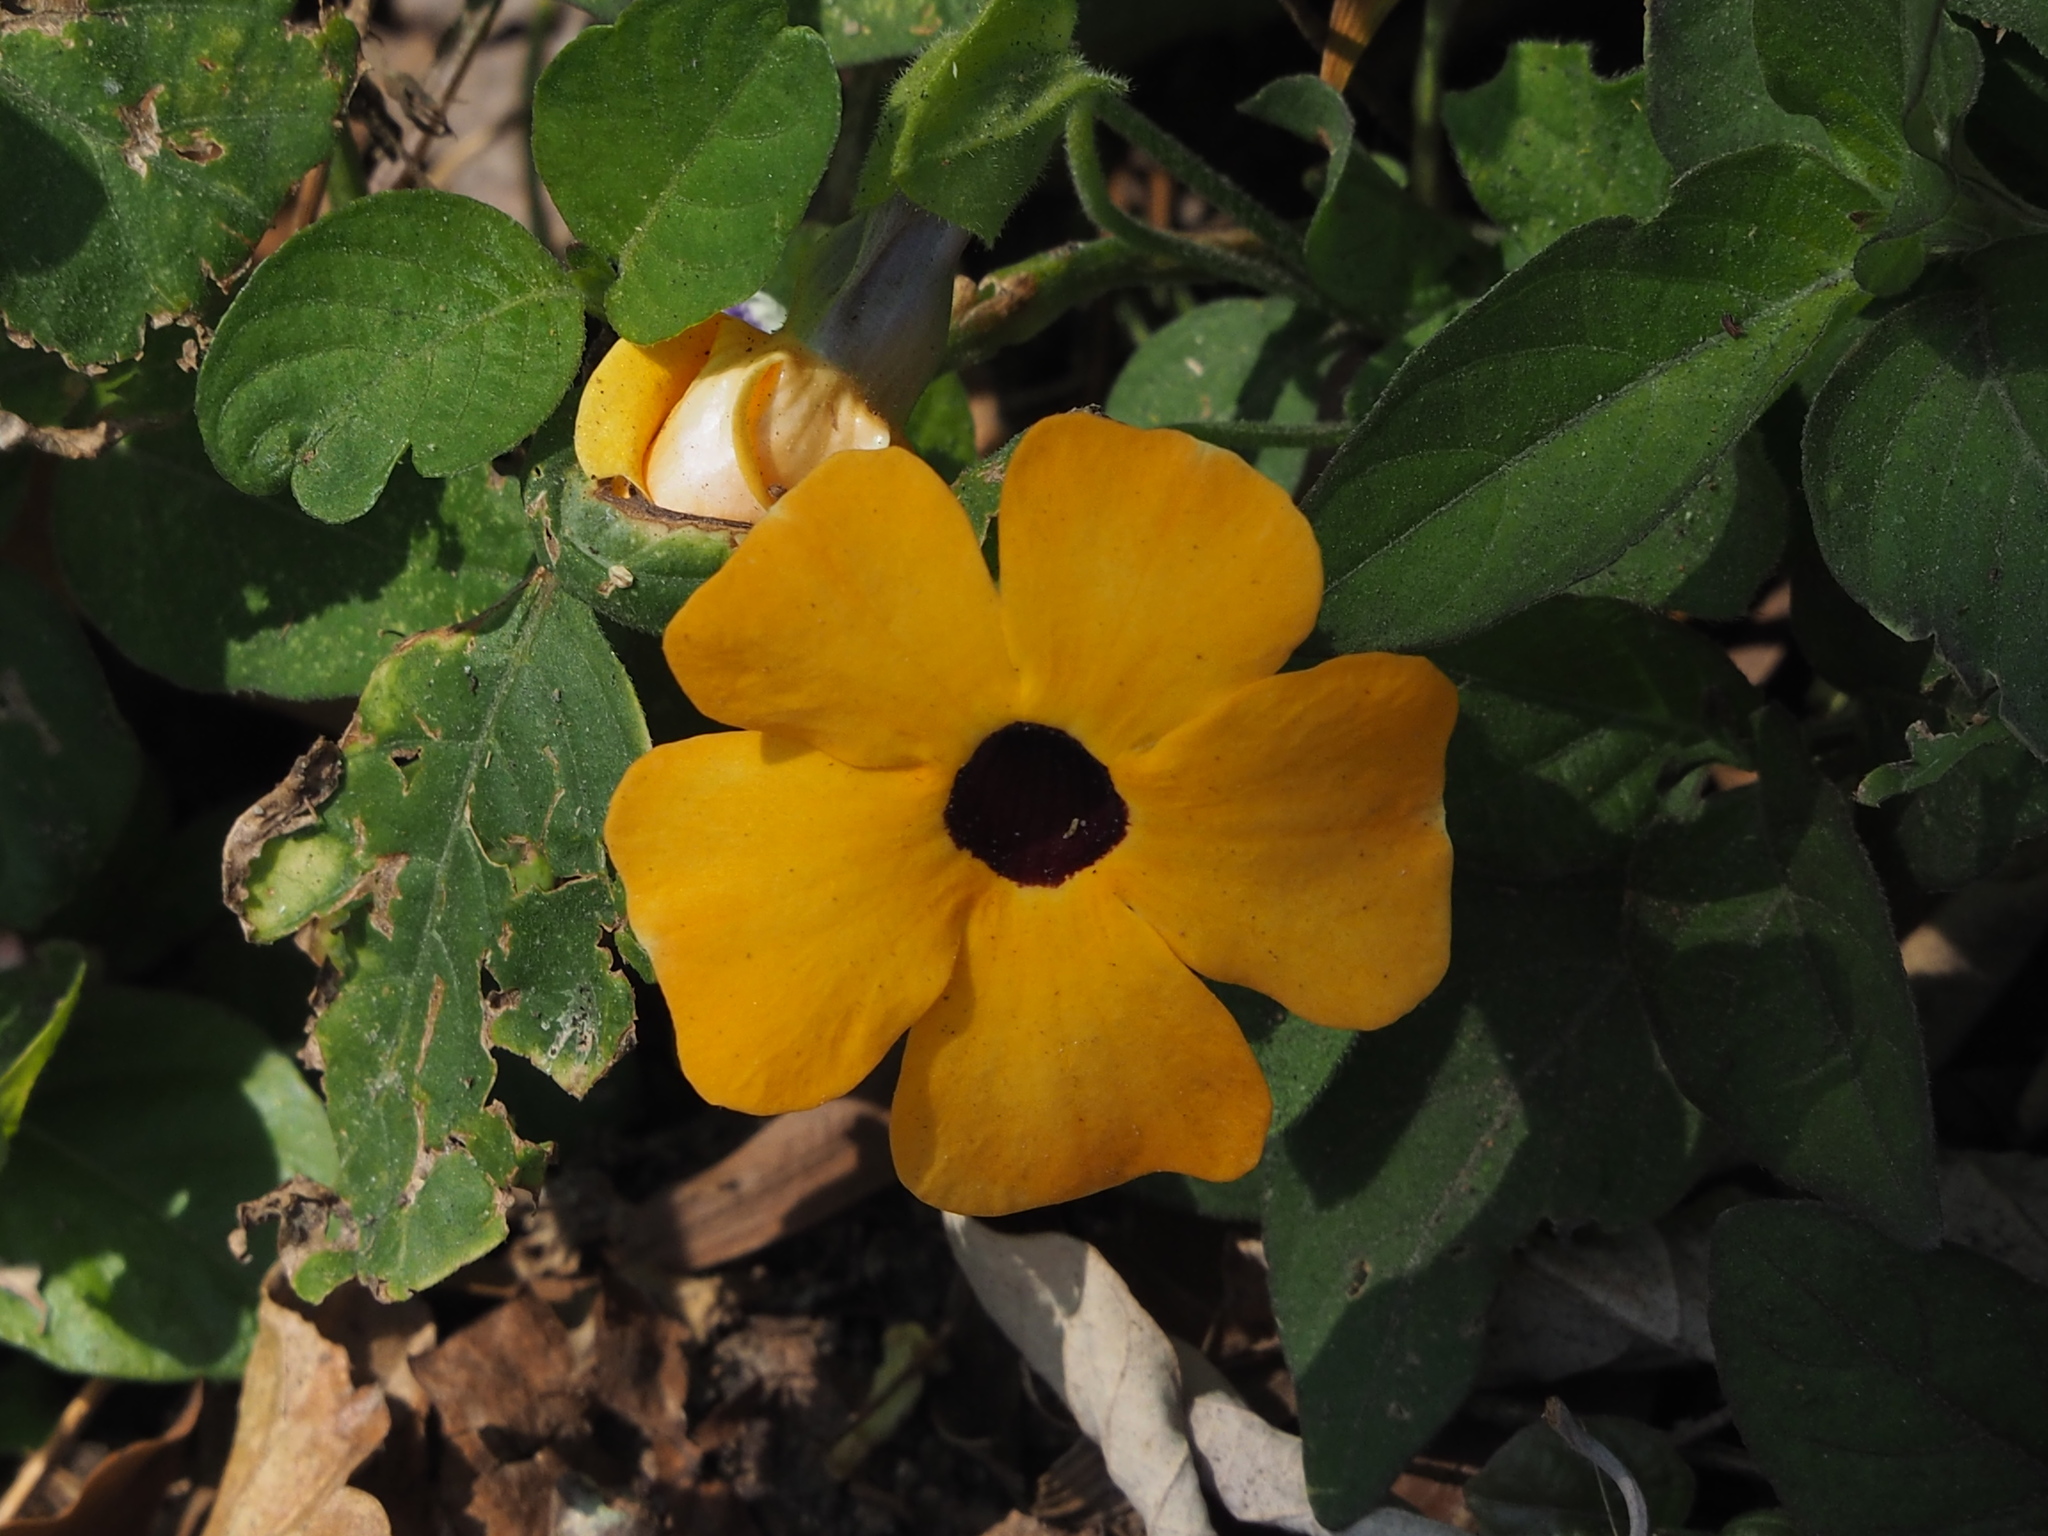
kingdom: Plantae
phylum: Tracheophyta
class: Magnoliopsida
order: Lamiales
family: Acanthaceae
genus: Thunbergia
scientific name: Thunbergia alata
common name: Blackeyed susan vine
